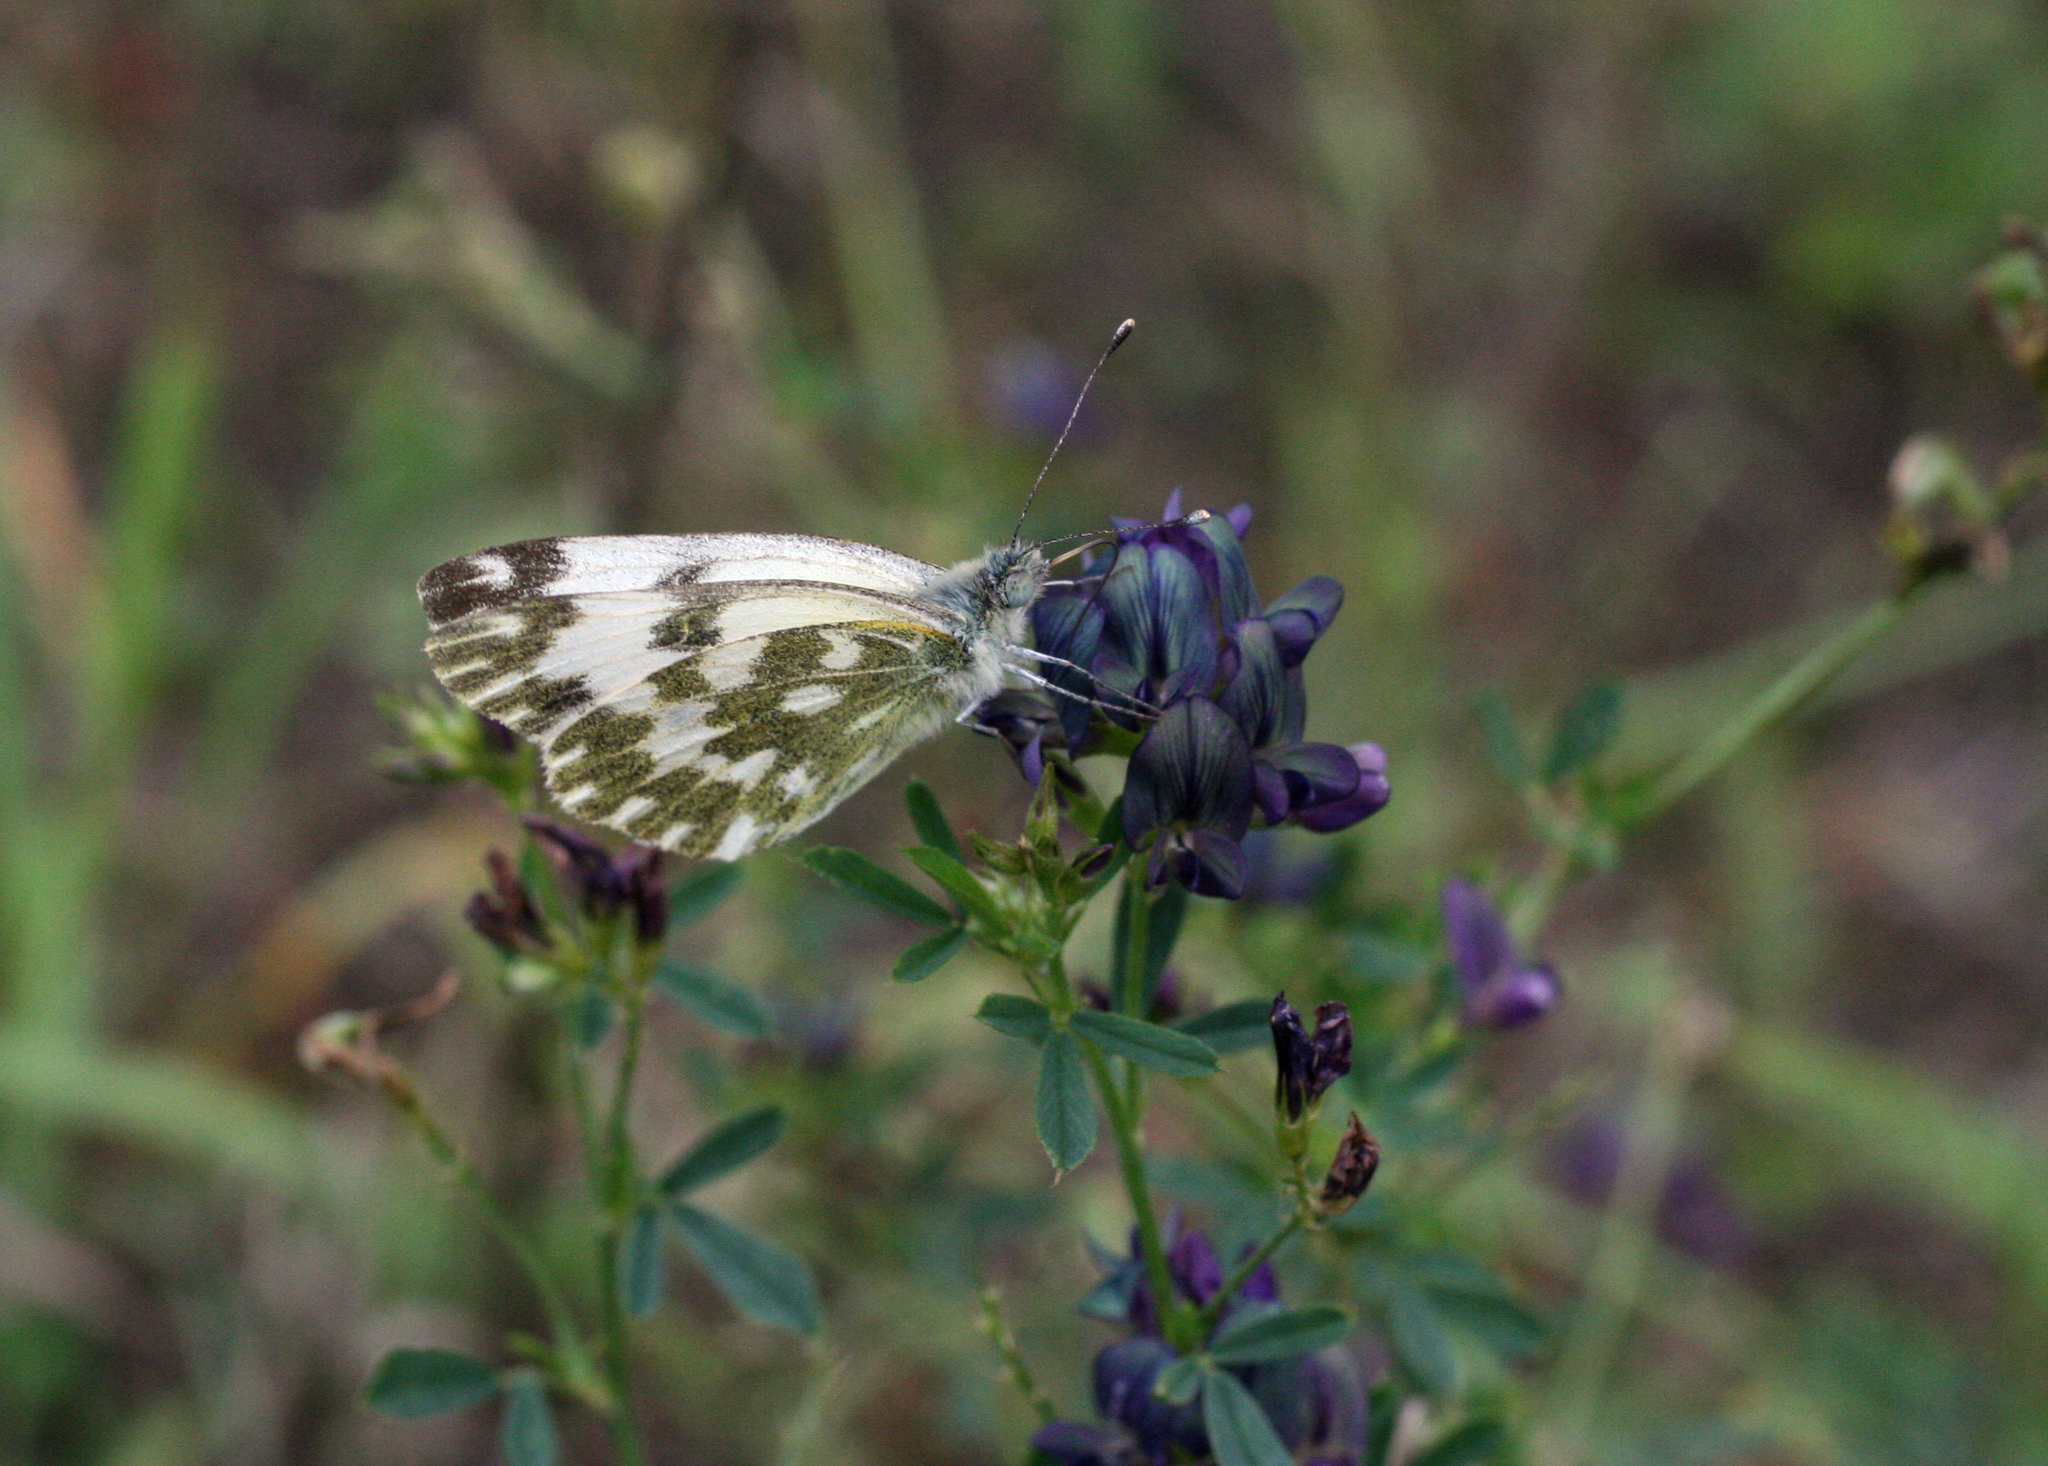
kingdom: Animalia
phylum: Arthropoda
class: Insecta
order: Lepidoptera
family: Pieridae
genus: Pontia
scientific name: Pontia edusa
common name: Eastern bath white
